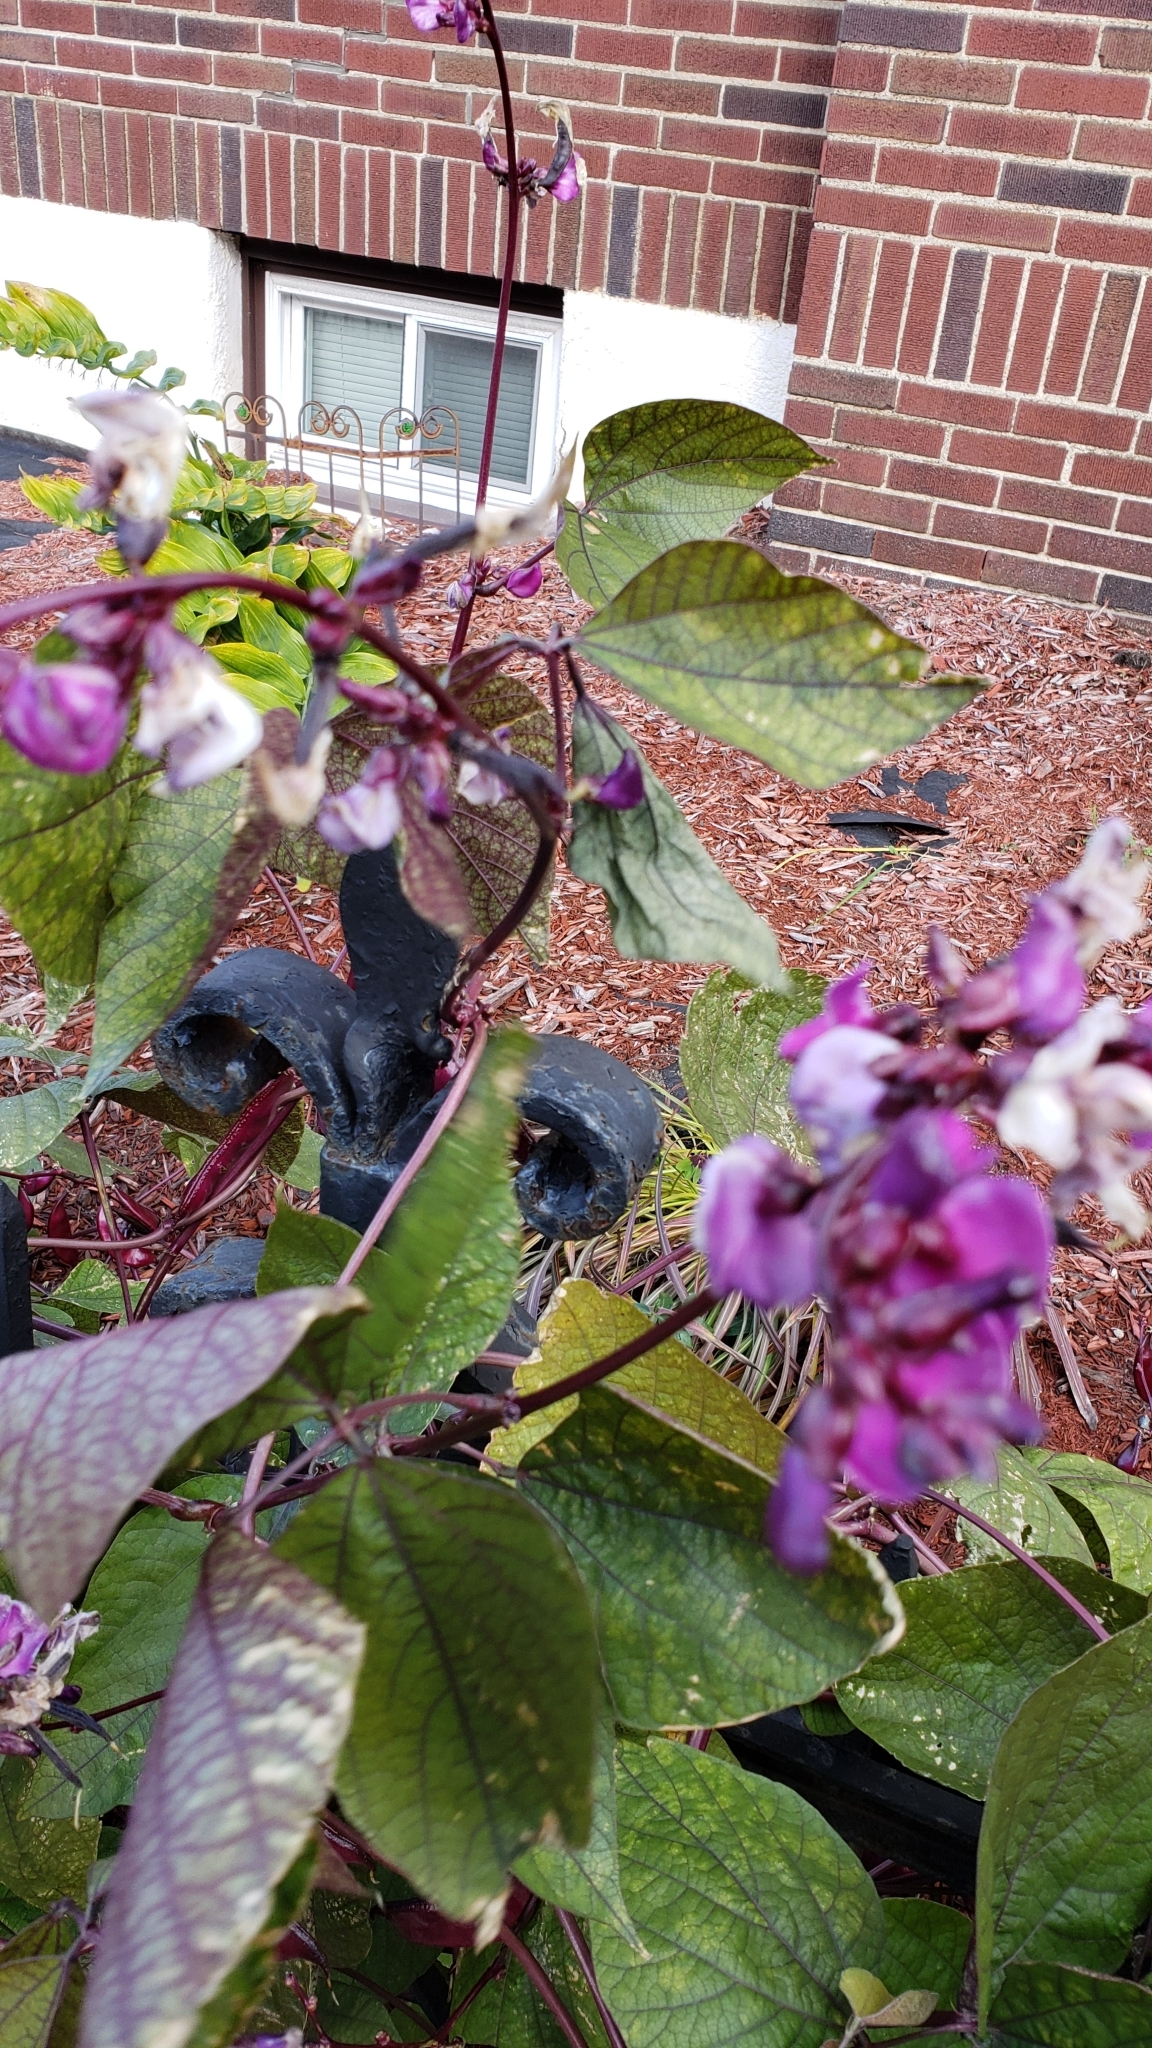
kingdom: Plantae
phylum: Tracheophyta
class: Magnoliopsida
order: Fabales
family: Fabaceae
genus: Lablab
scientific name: Lablab purpureus
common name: Lablab-bean
